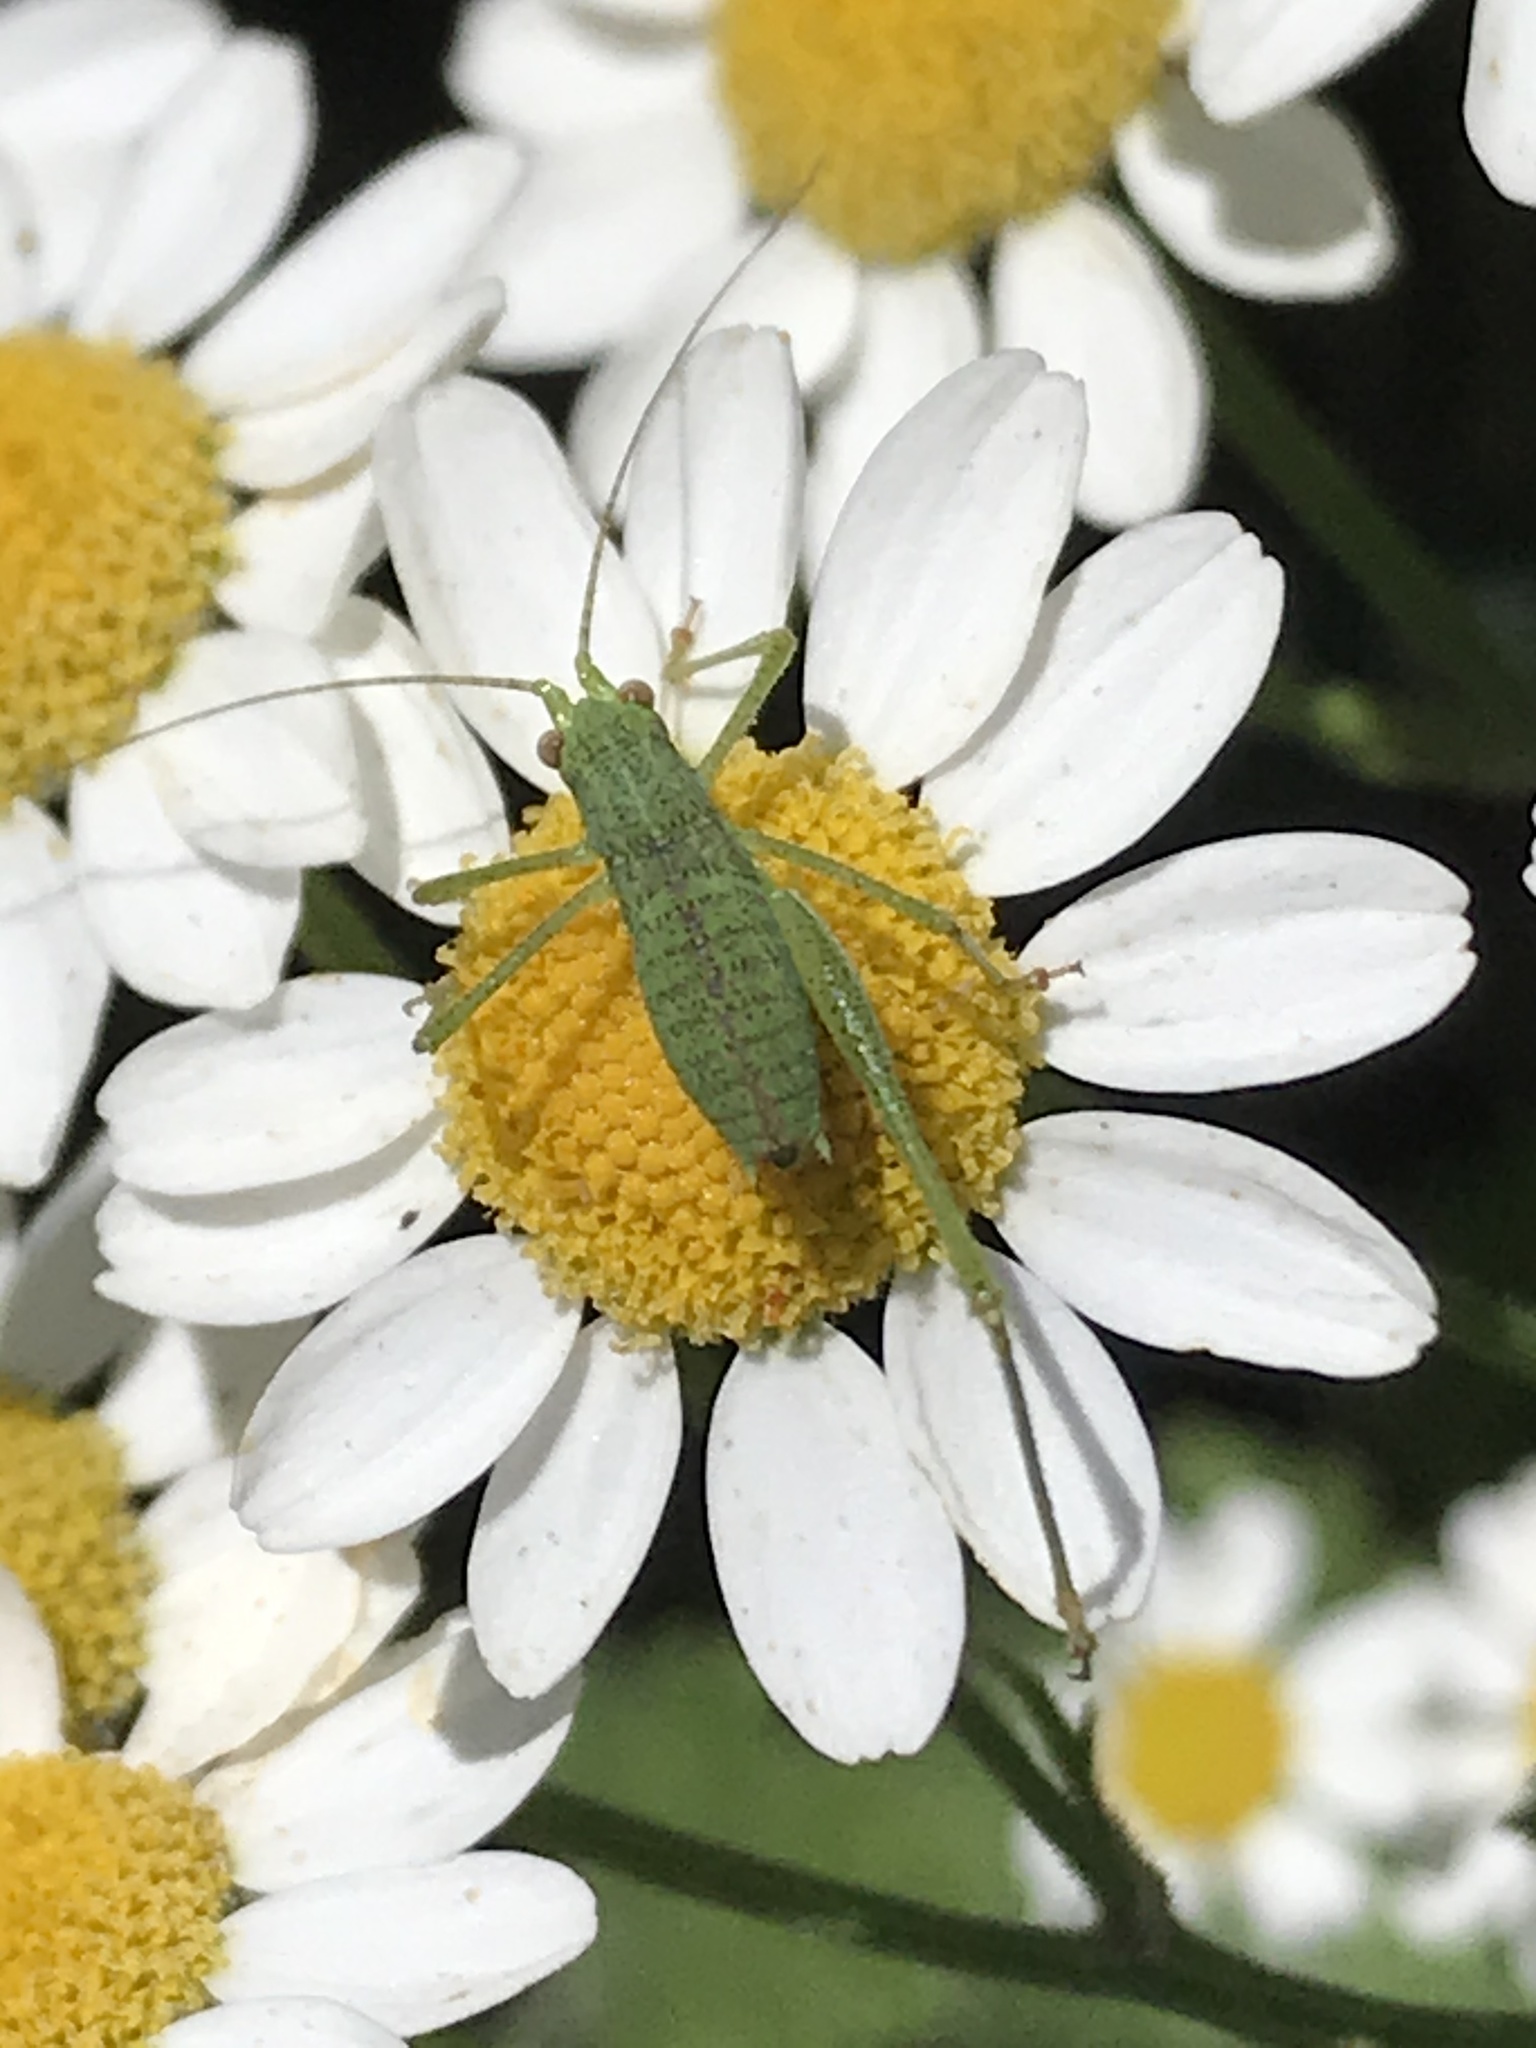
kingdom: Animalia
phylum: Arthropoda
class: Insecta
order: Orthoptera
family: Tettigoniidae
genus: Phaneroptera
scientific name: Phaneroptera nana
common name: Southern sickle bush-cricket
